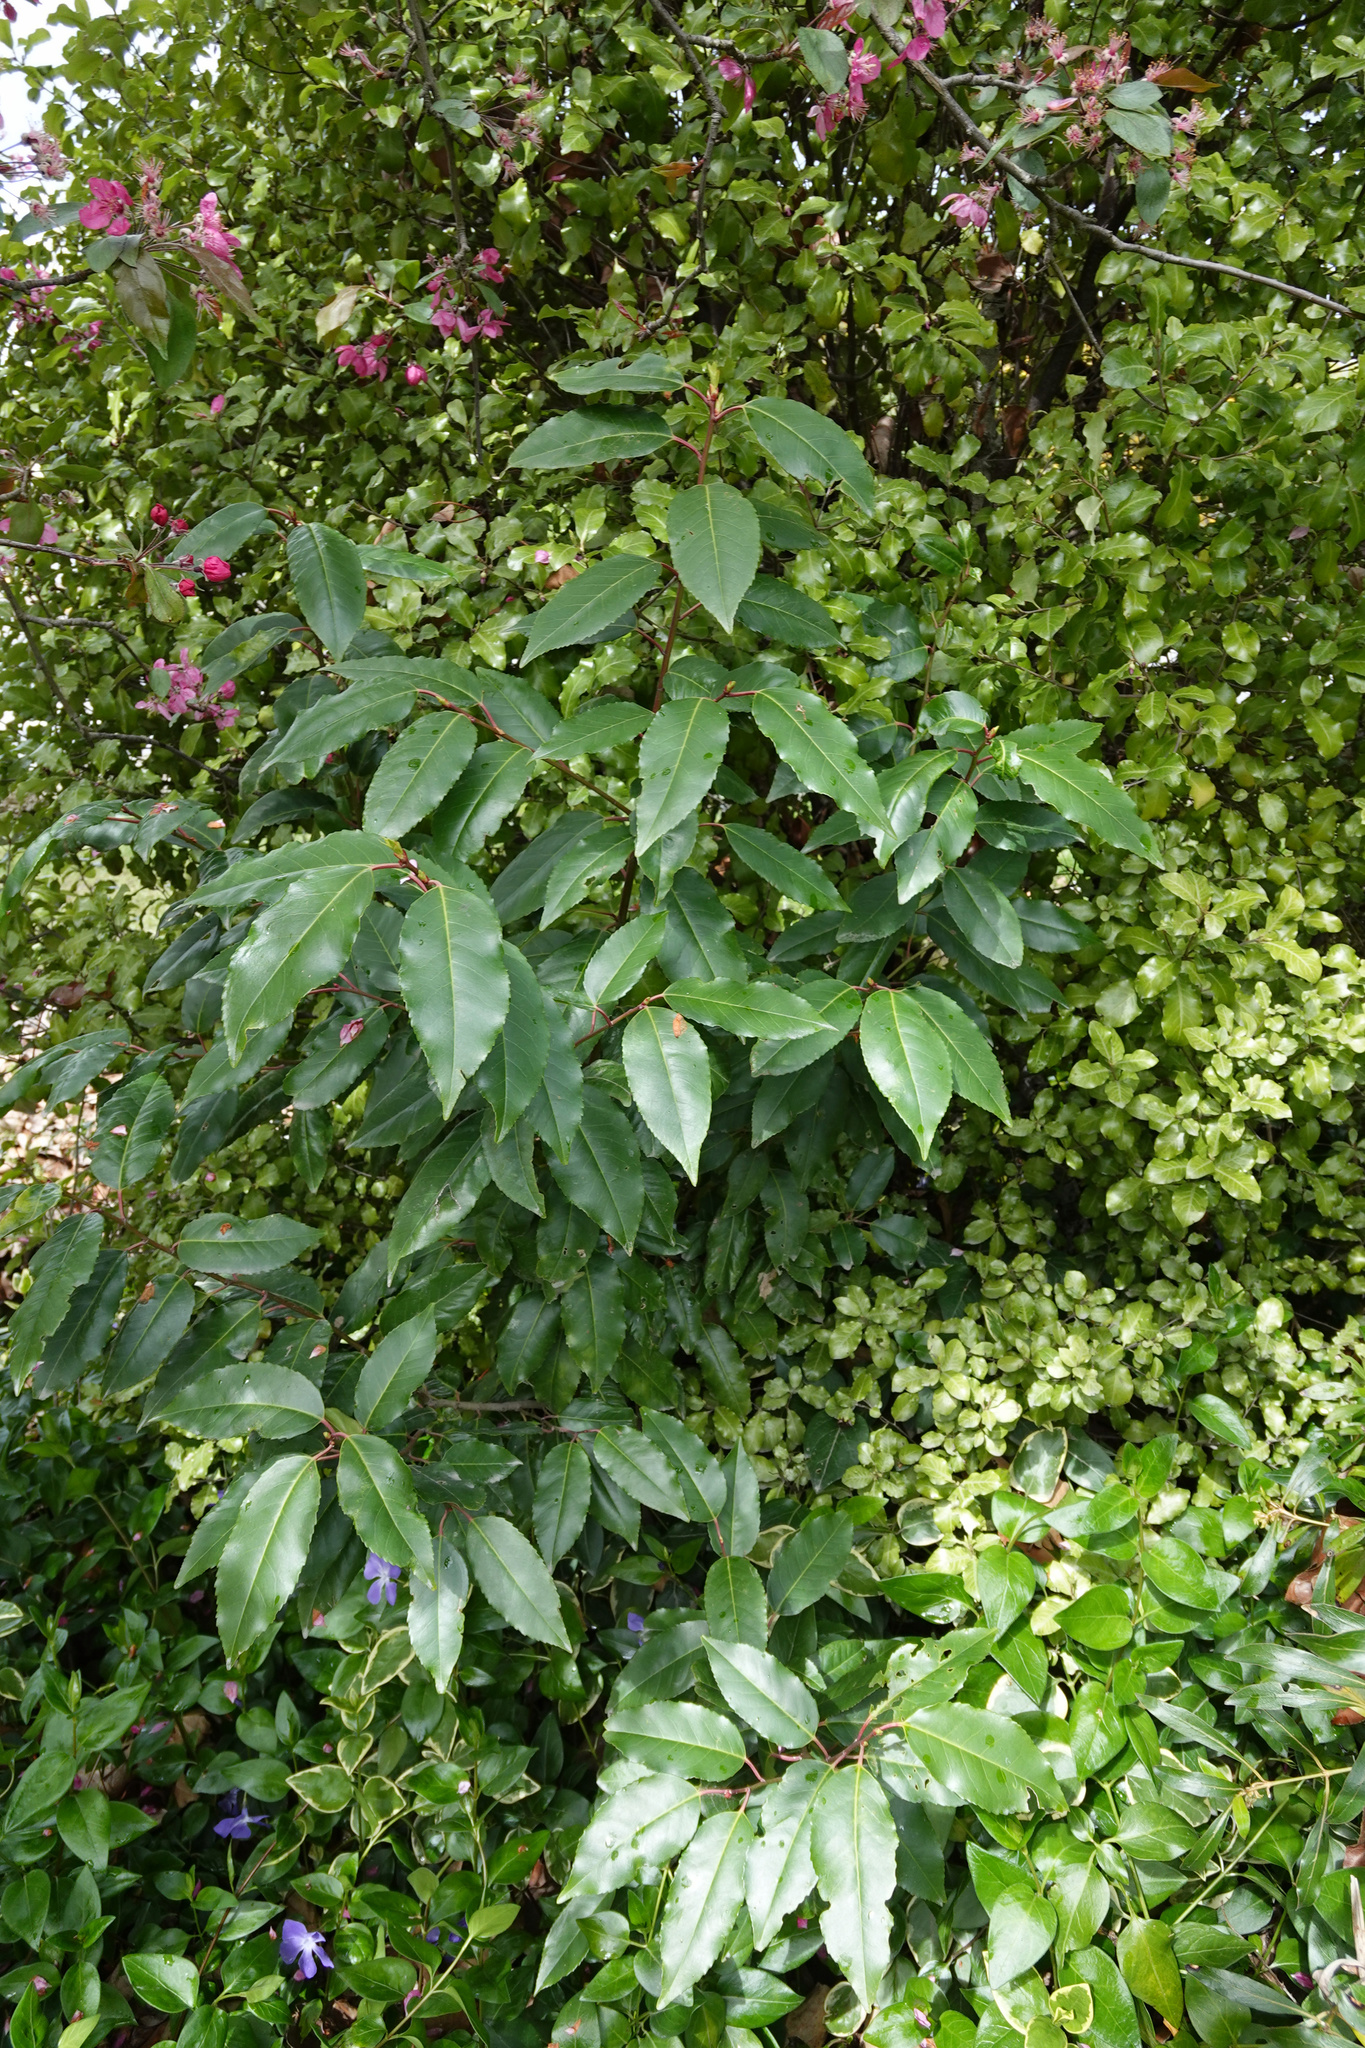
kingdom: Plantae
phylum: Tracheophyta
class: Magnoliopsida
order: Rosales
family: Rosaceae
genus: Prunus
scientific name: Prunus lusitanica
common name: Portugal laurel
